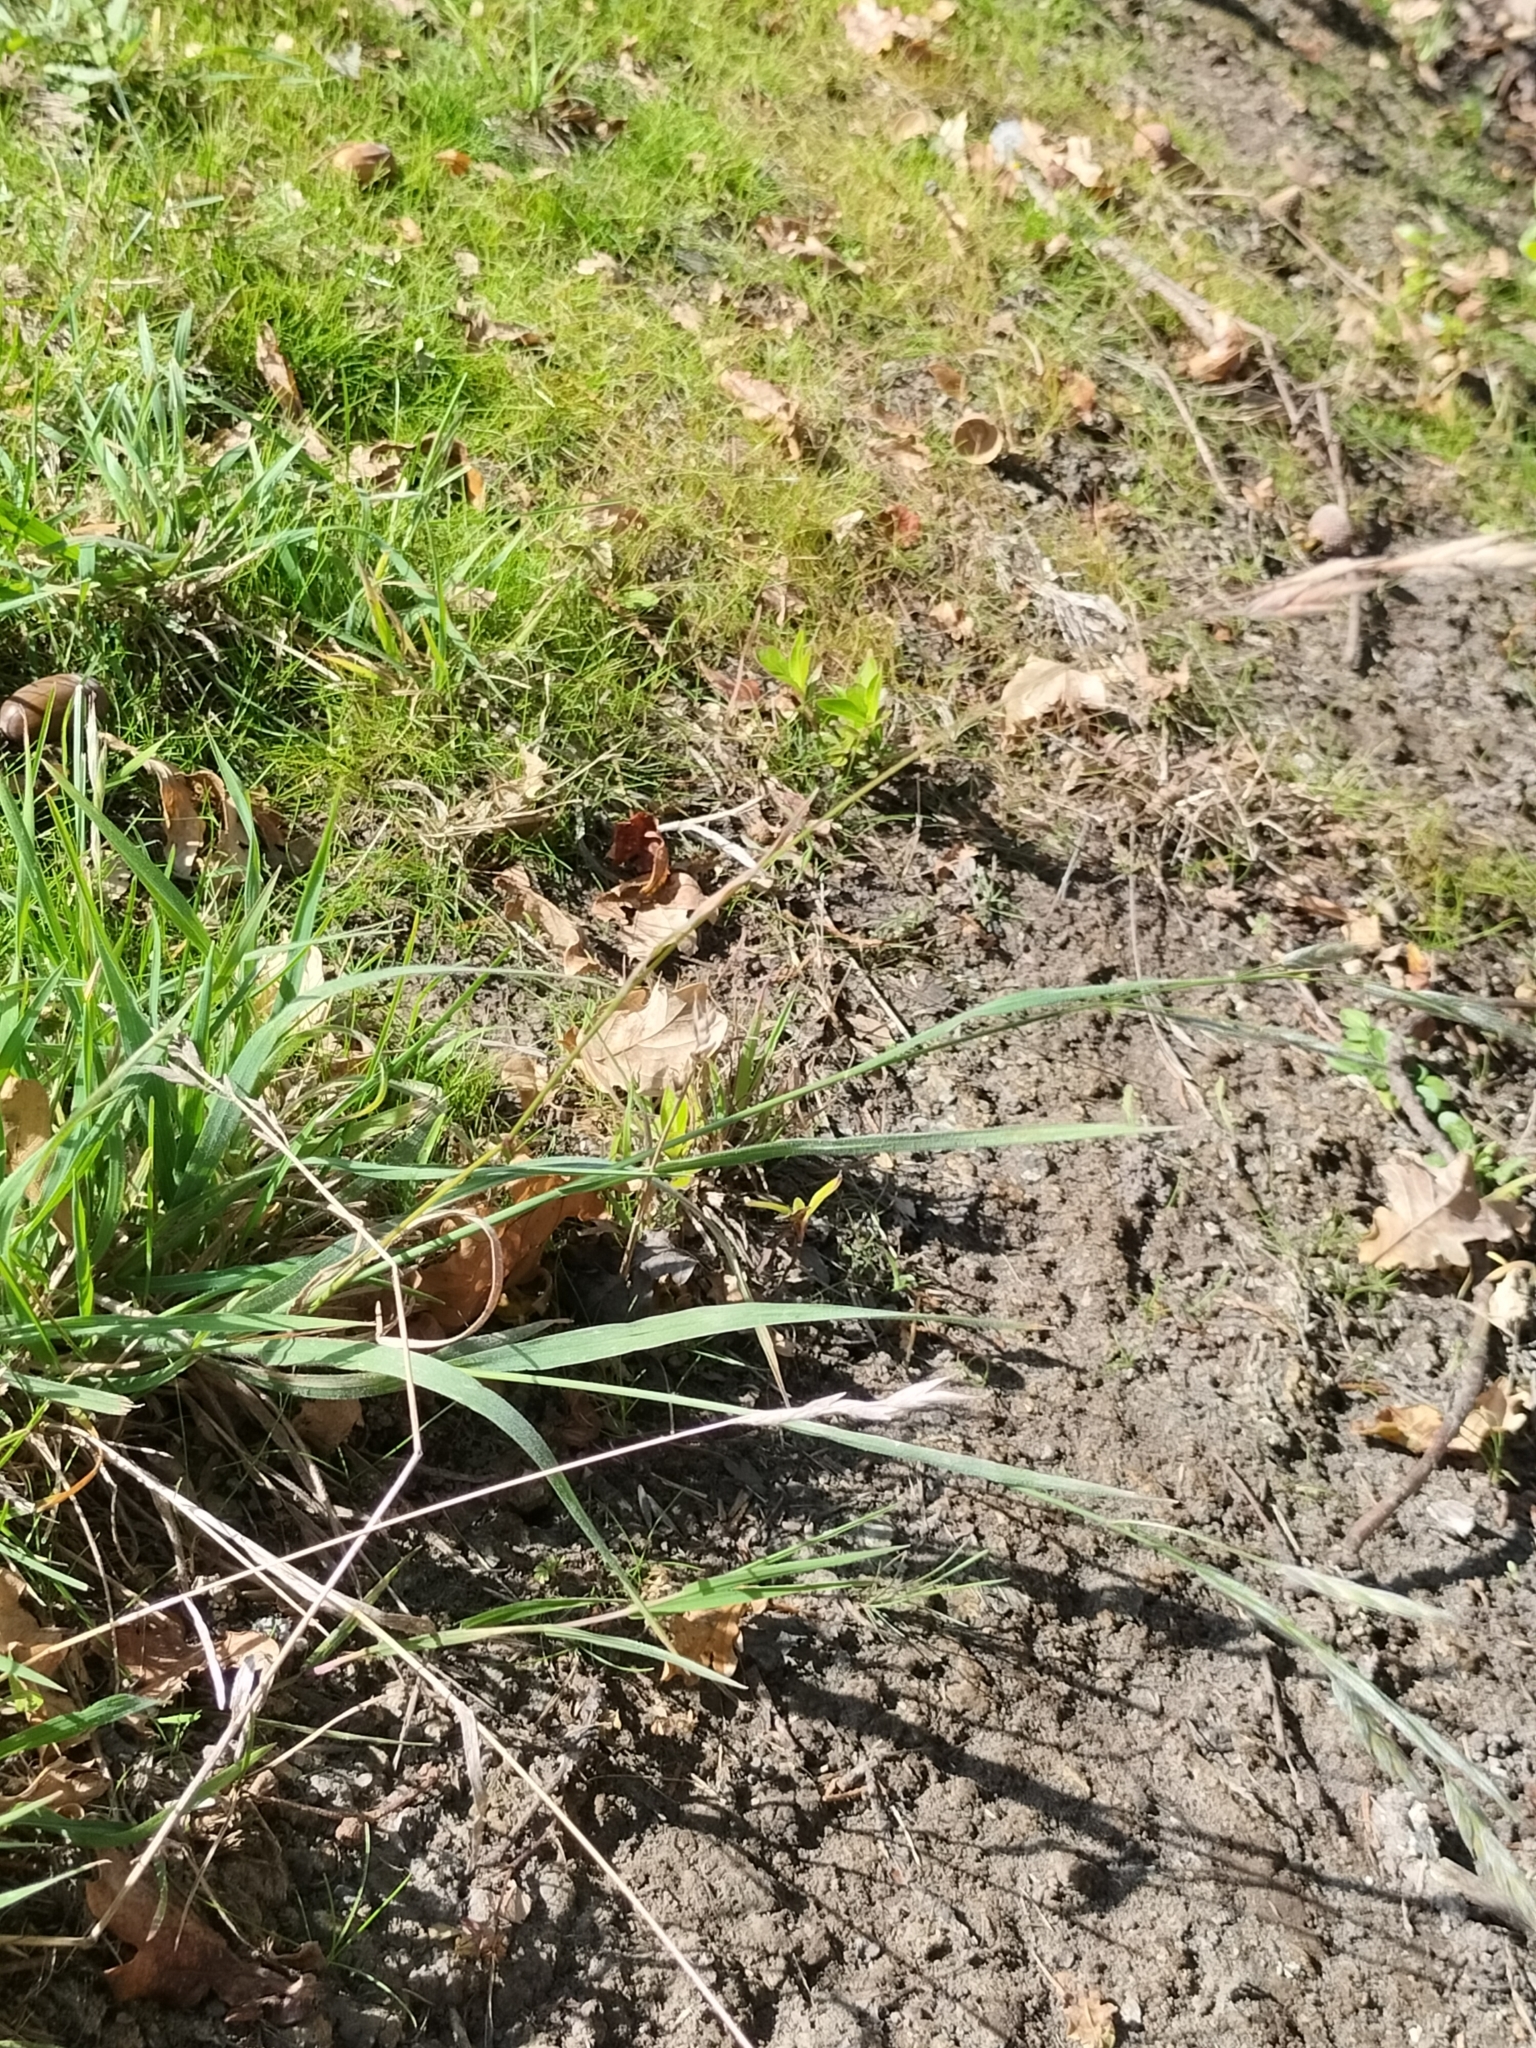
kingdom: Plantae
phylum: Tracheophyta
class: Liliopsida
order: Poales
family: Poaceae
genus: Bromus
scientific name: Bromus catharticus
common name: Rescuegrass
